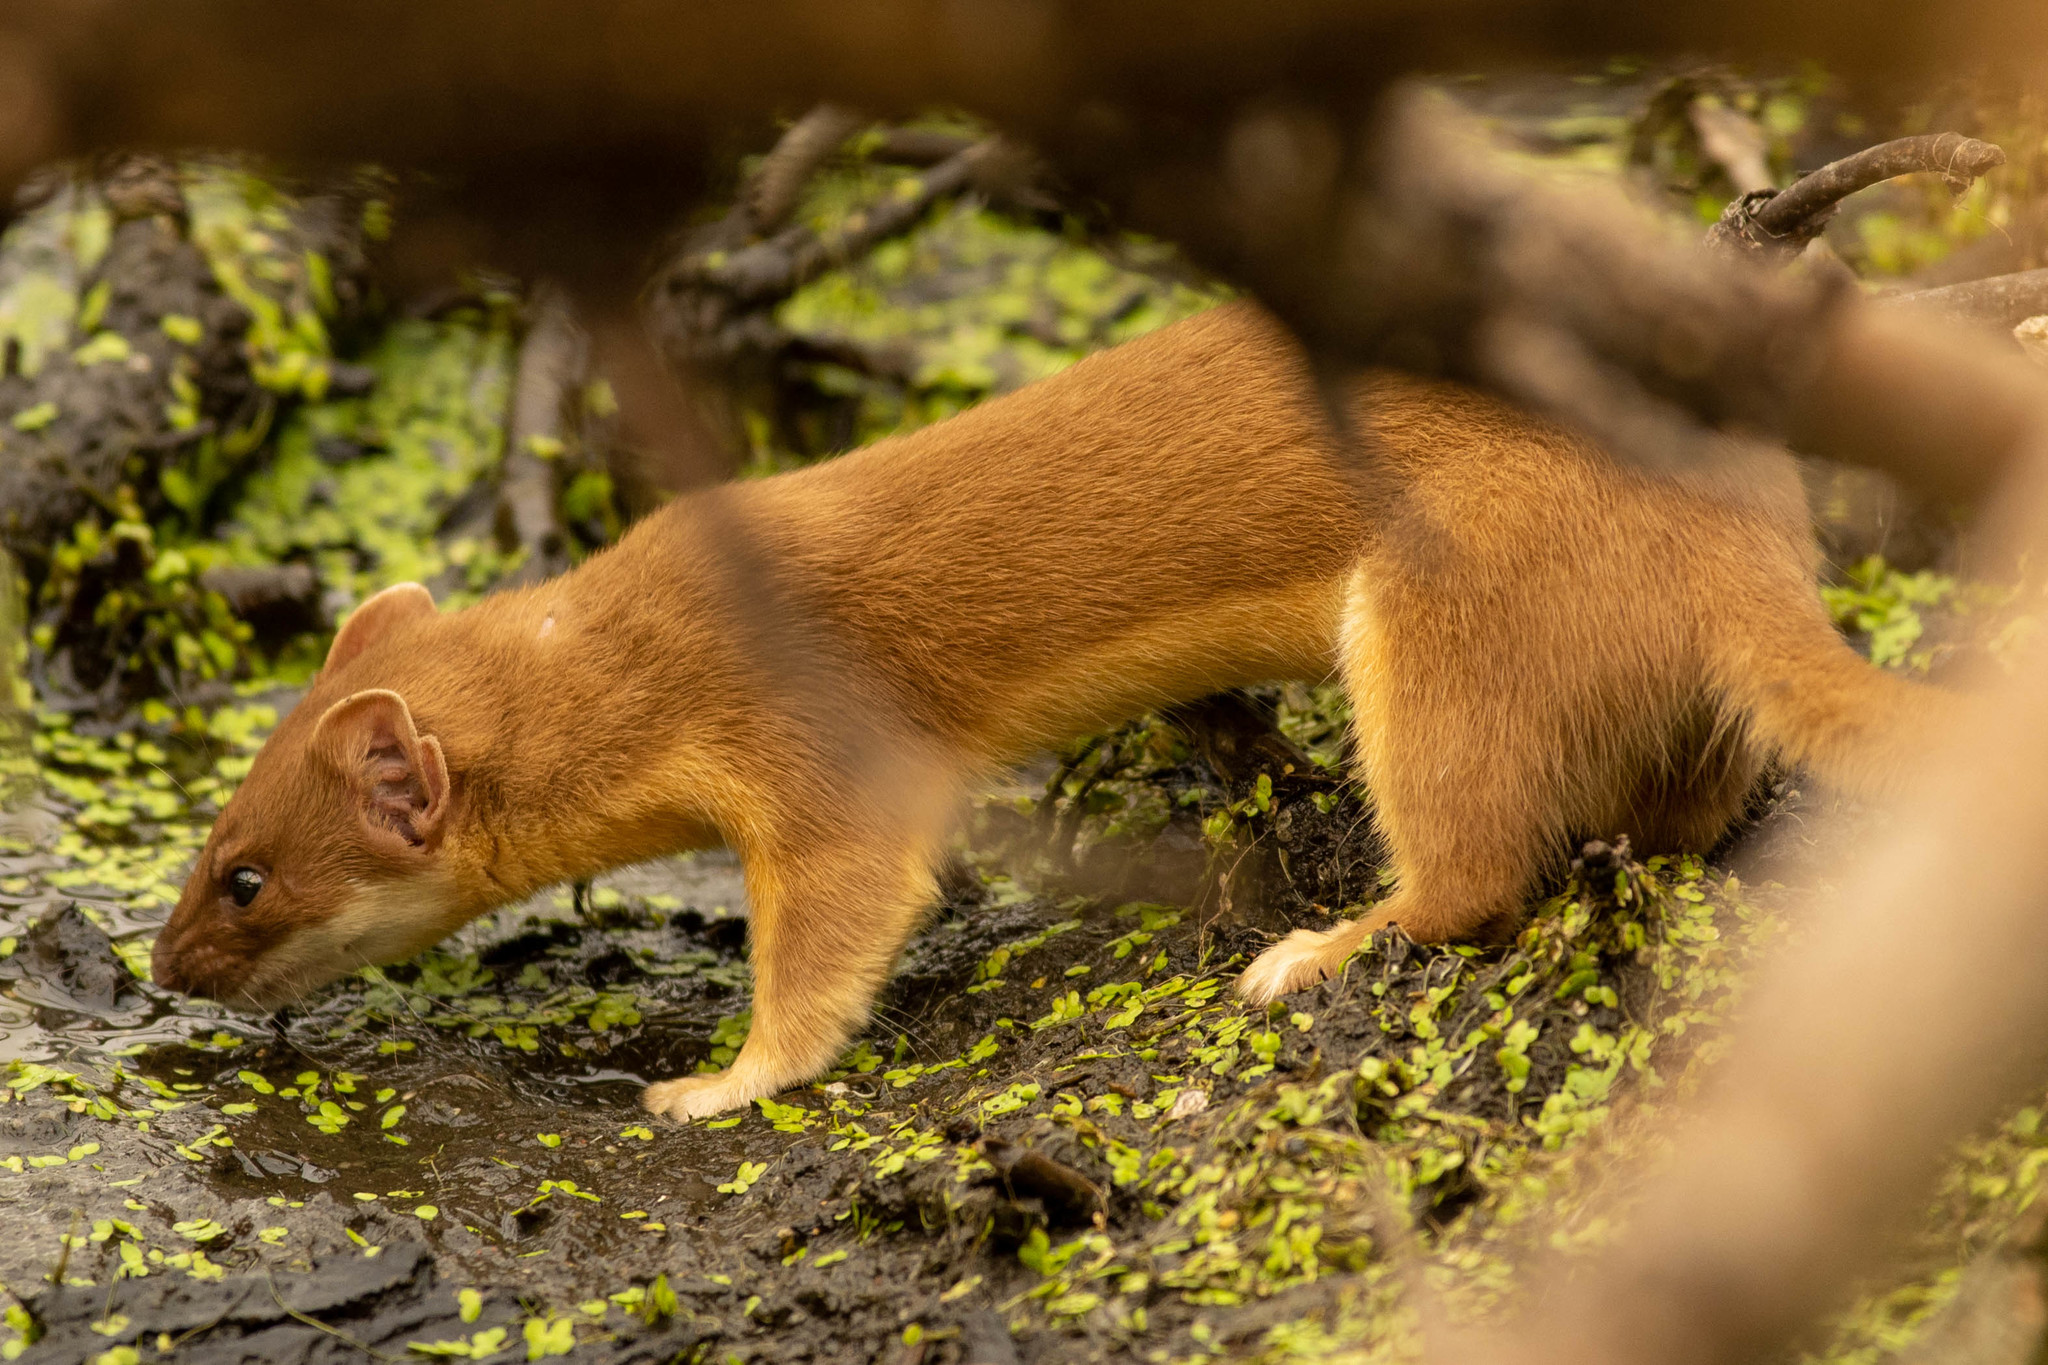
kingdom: Animalia
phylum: Chordata
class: Mammalia
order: Carnivora
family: Mustelidae
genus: Mustela
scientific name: Mustela
